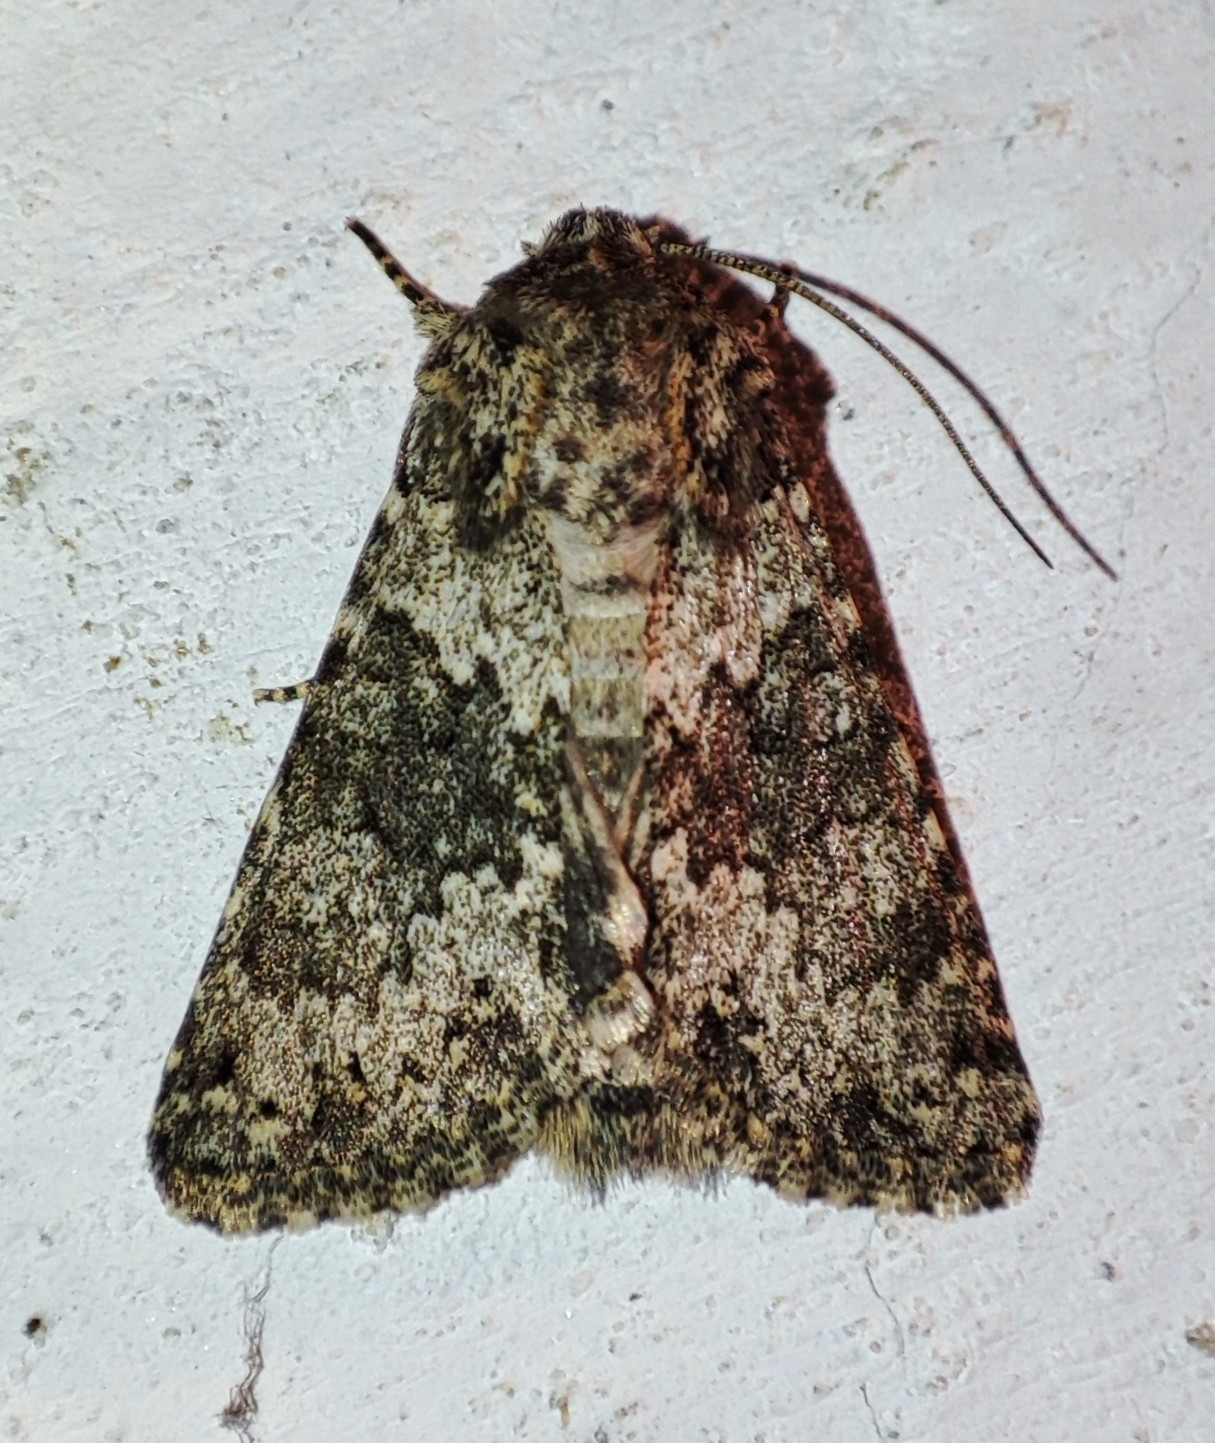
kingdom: Animalia
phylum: Arthropoda
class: Insecta
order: Lepidoptera
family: Noctuidae
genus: Hecatera
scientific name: Hecatera dysodea
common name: Small ranunculus
